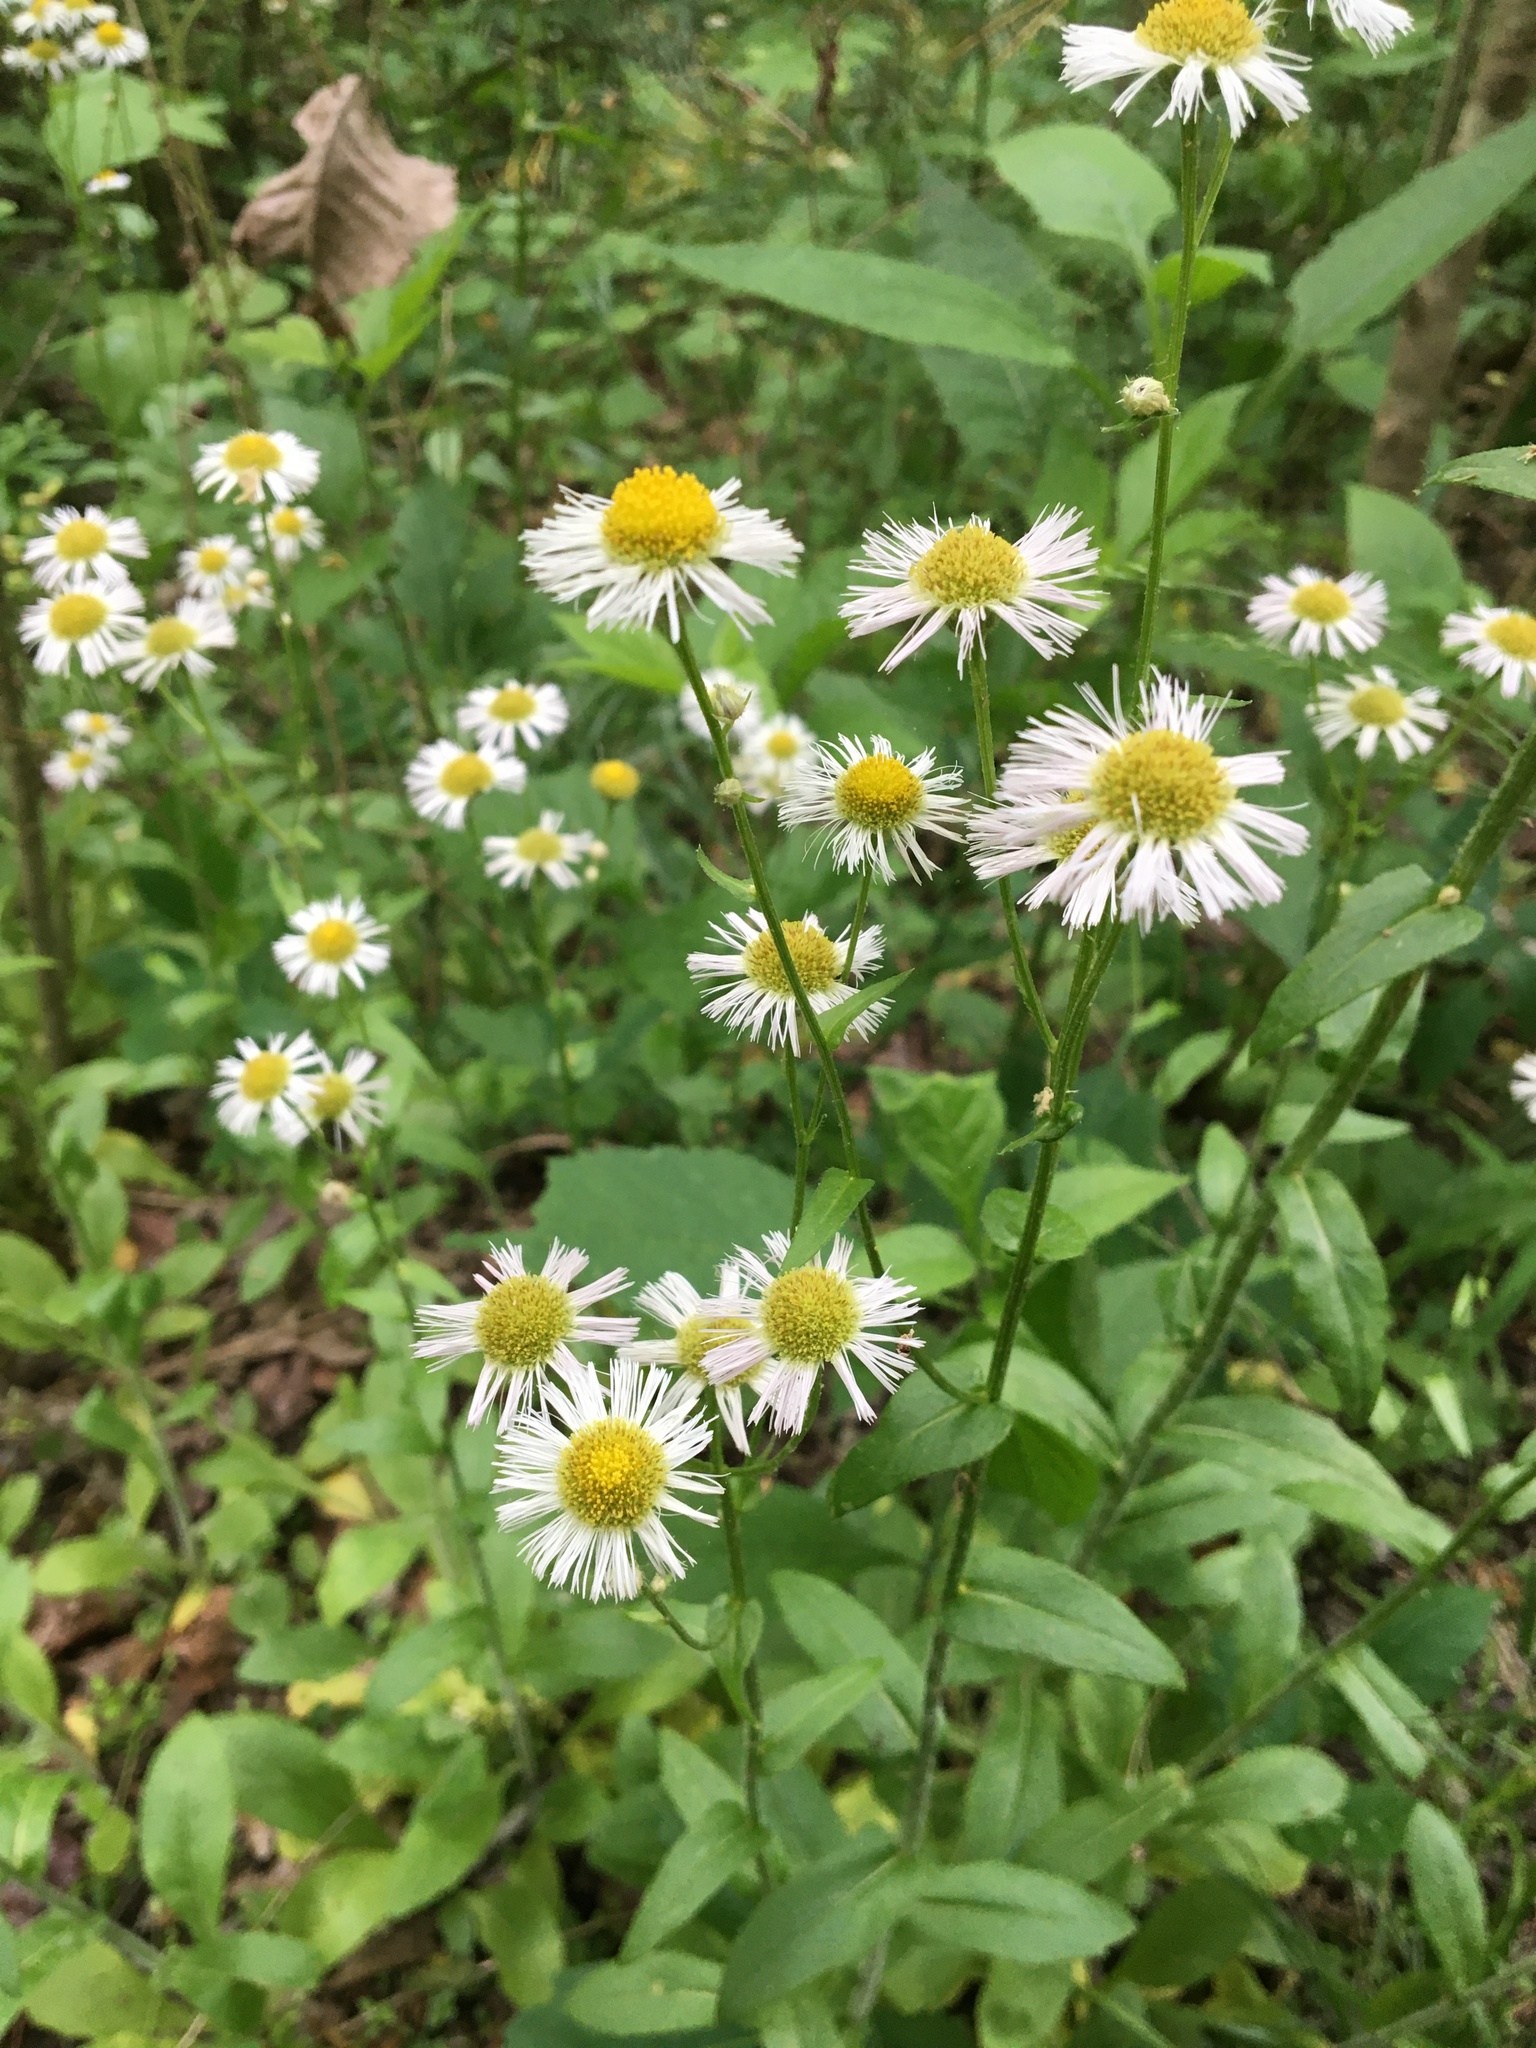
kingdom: Plantae
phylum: Tracheophyta
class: Magnoliopsida
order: Asterales
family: Asteraceae
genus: Erigeron
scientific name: Erigeron philadelphicus
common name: Robin's-plantain
